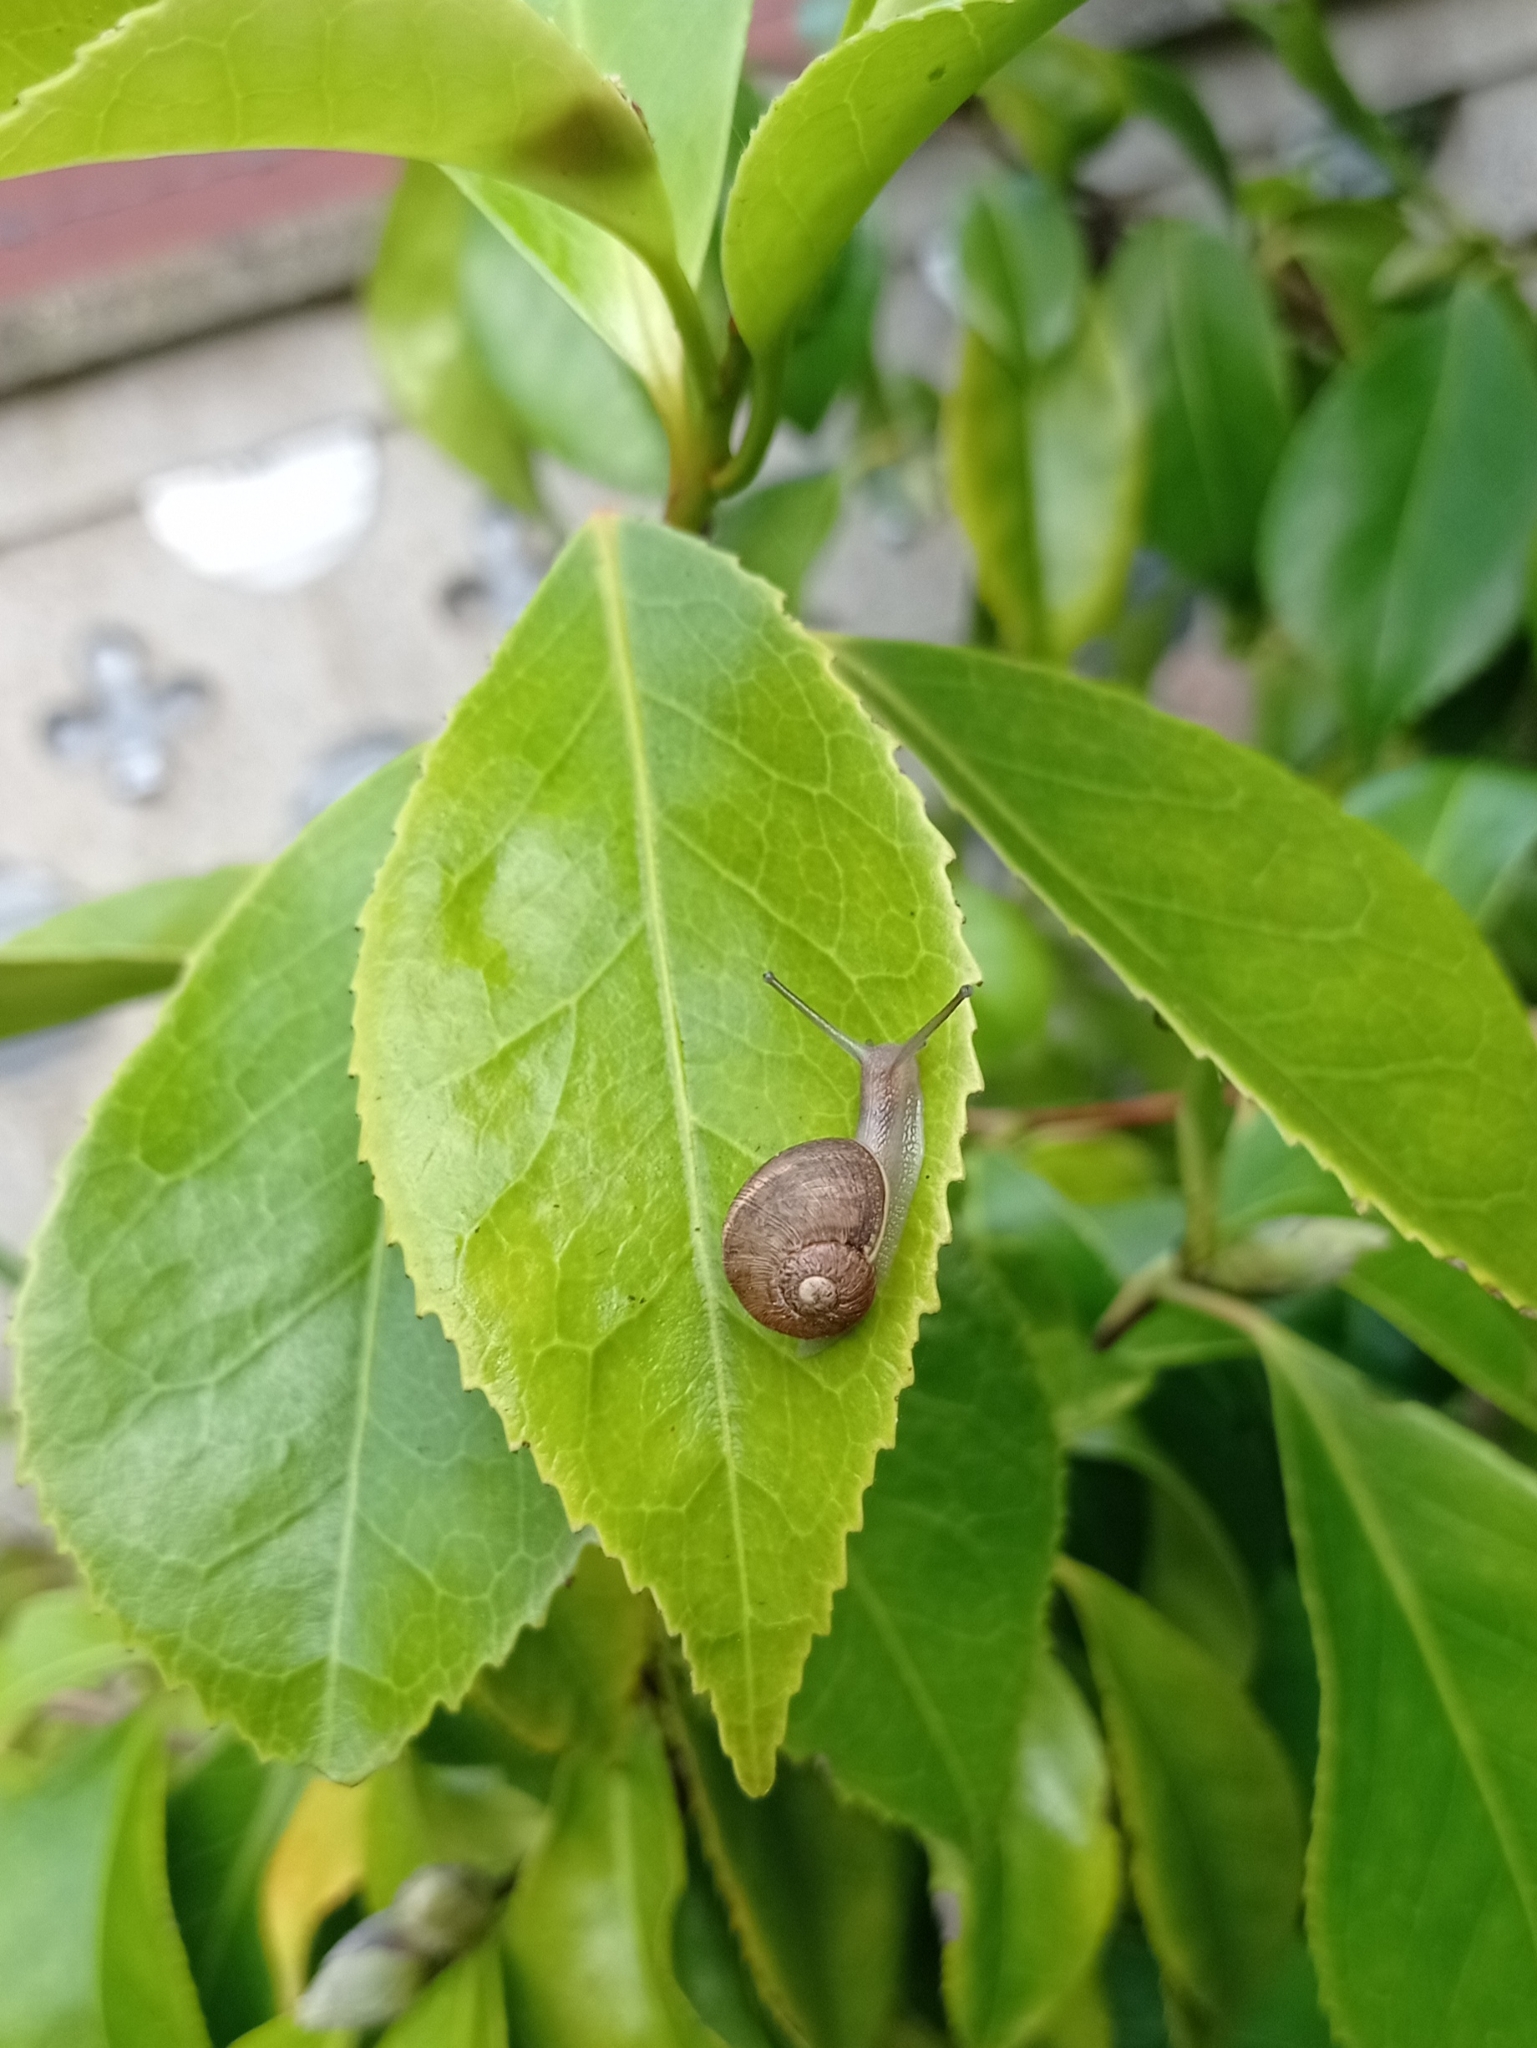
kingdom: Animalia
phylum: Mollusca
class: Gastropoda
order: Stylommatophora
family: Helicidae
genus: Cornu
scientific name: Cornu aspersum
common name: Brown garden snail
